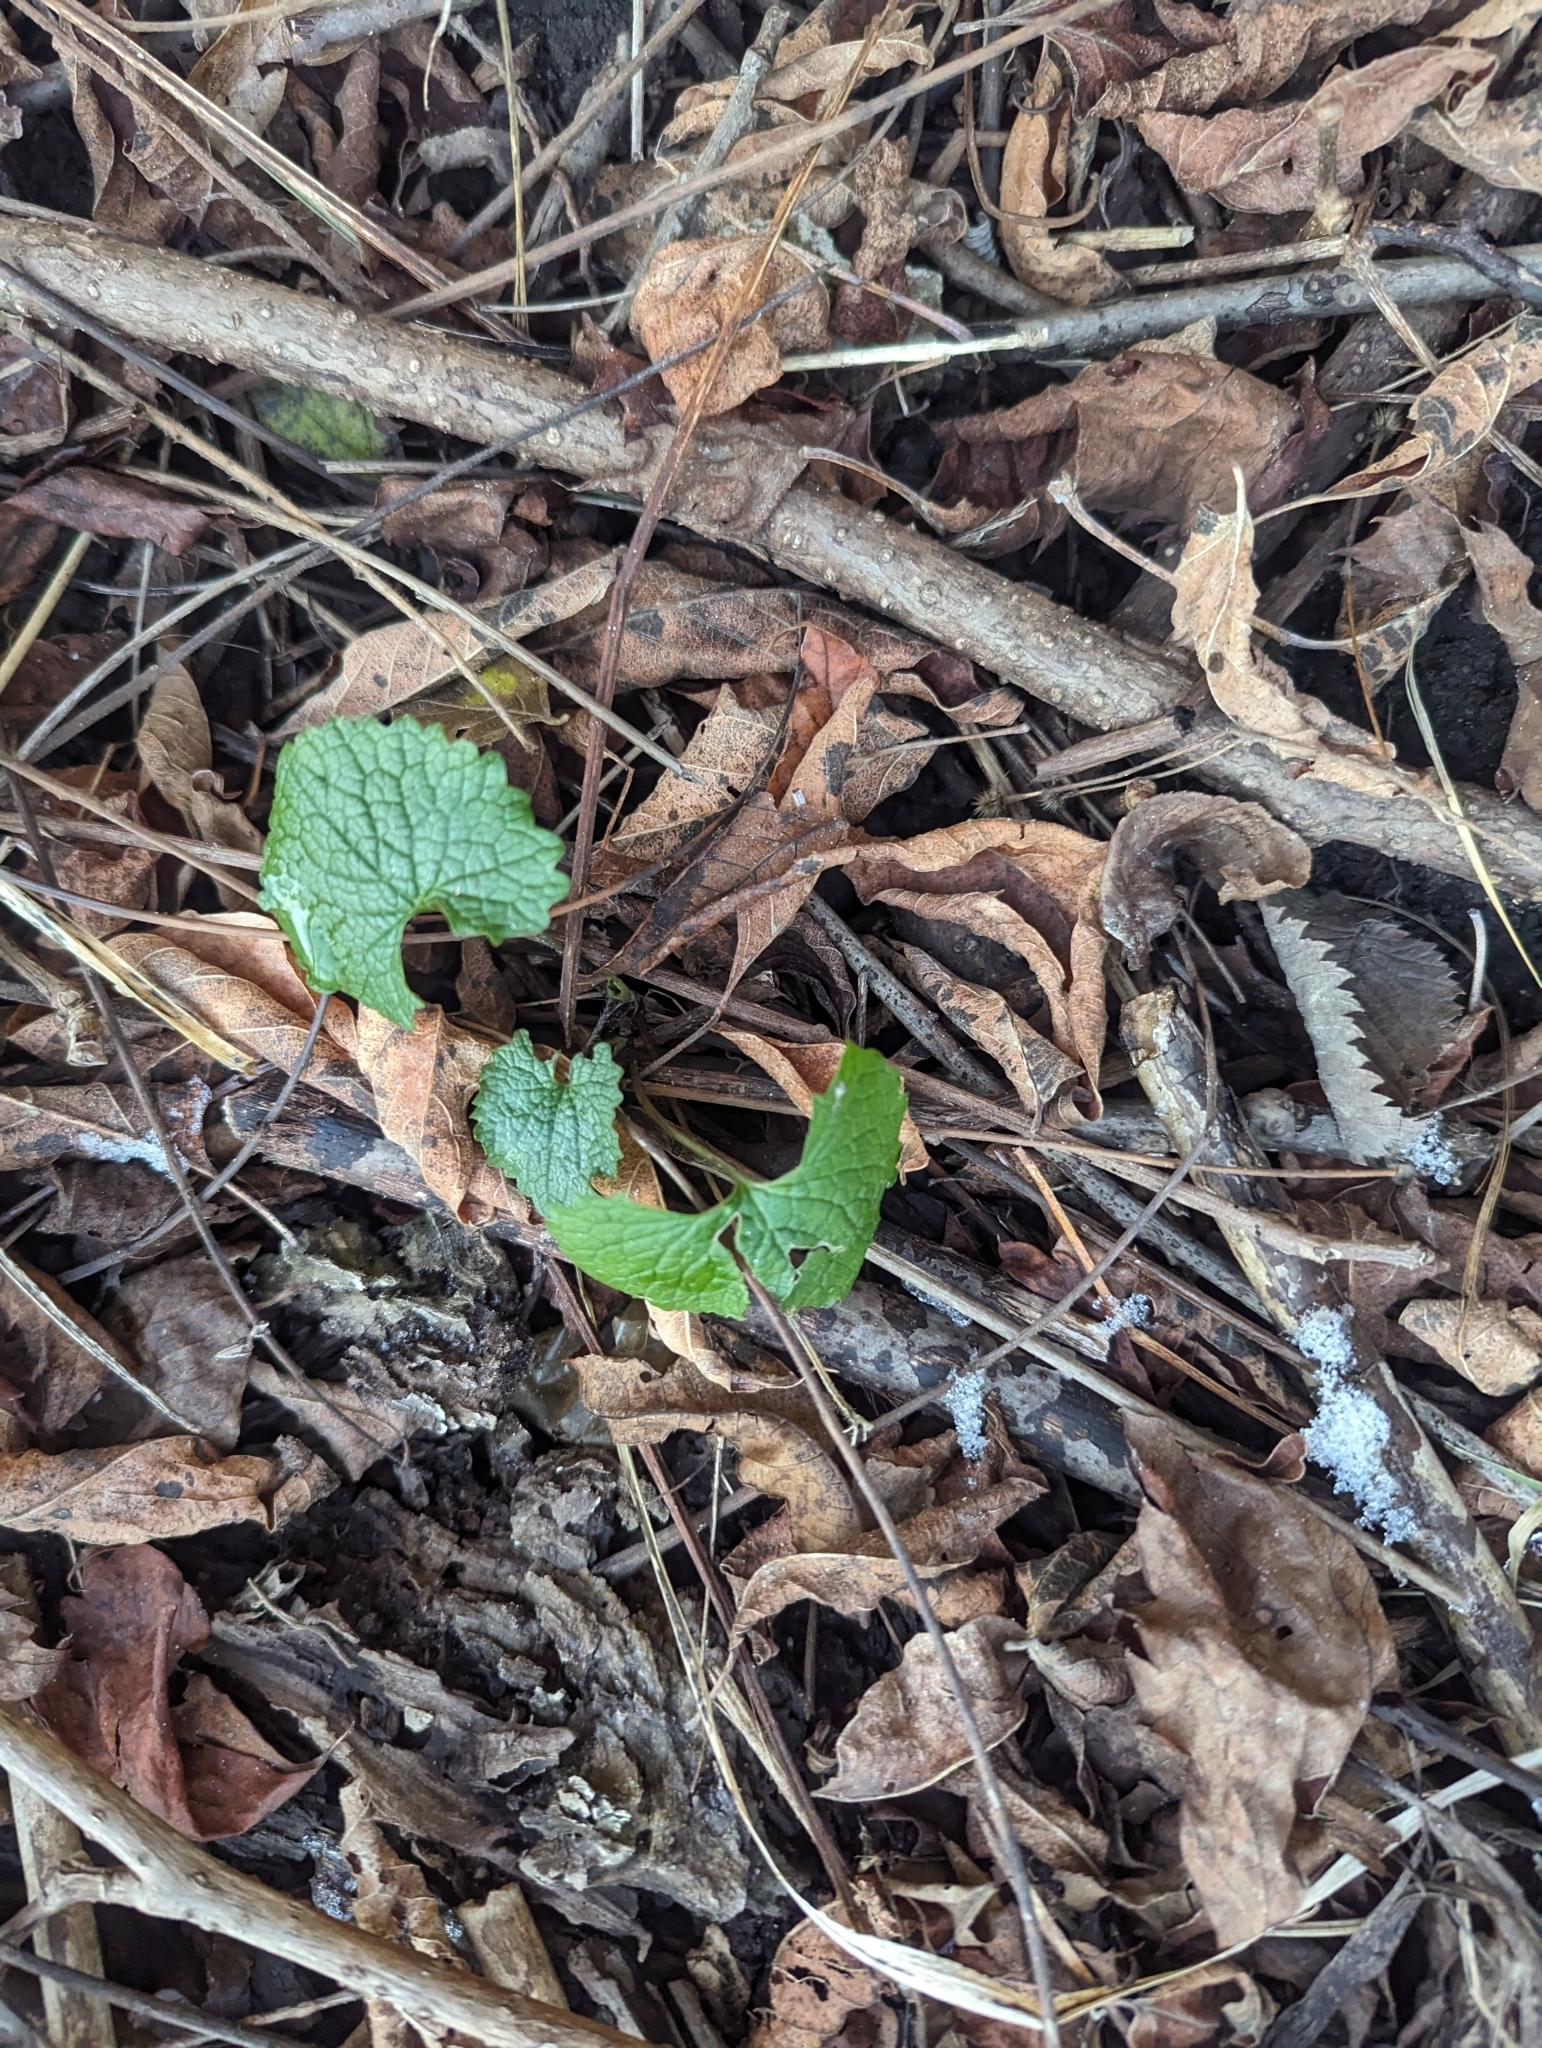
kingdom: Plantae
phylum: Tracheophyta
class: Magnoliopsida
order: Brassicales
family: Brassicaceae
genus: Alliaria
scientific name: Alliaria petiolata
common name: Garlic mustard
